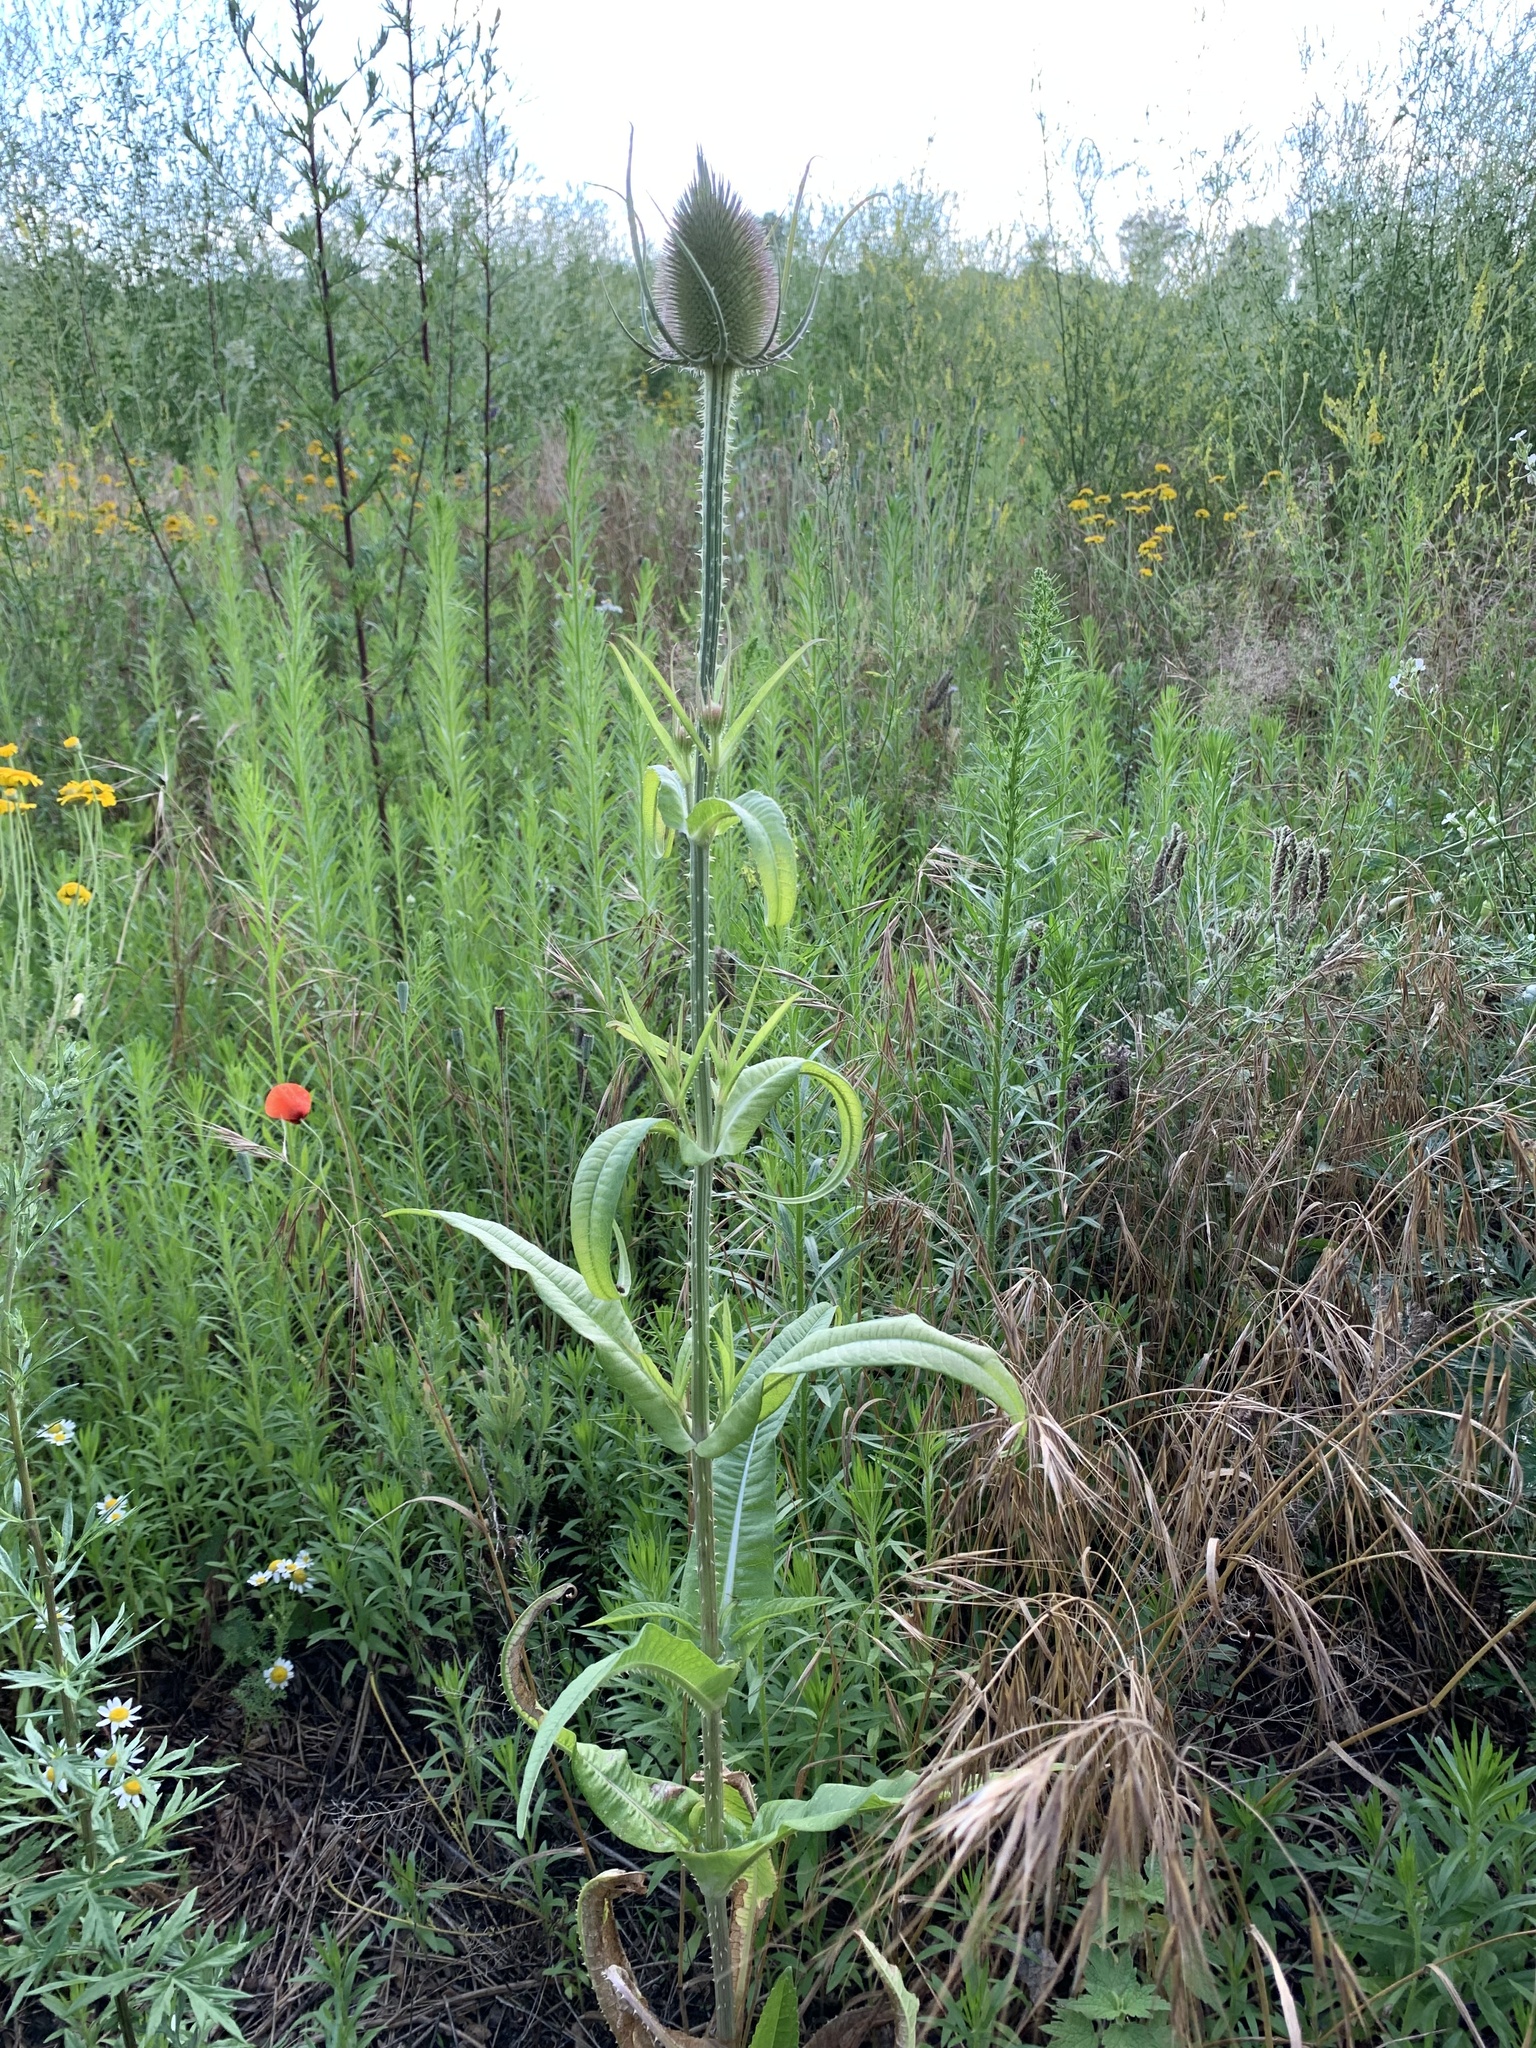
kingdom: Plantae
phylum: Tracheophyta
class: Magnoliopsida
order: Dipsacales
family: Caprifoliaceae
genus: Dipsacus
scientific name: Dipsacus fullonum
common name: Teasel
